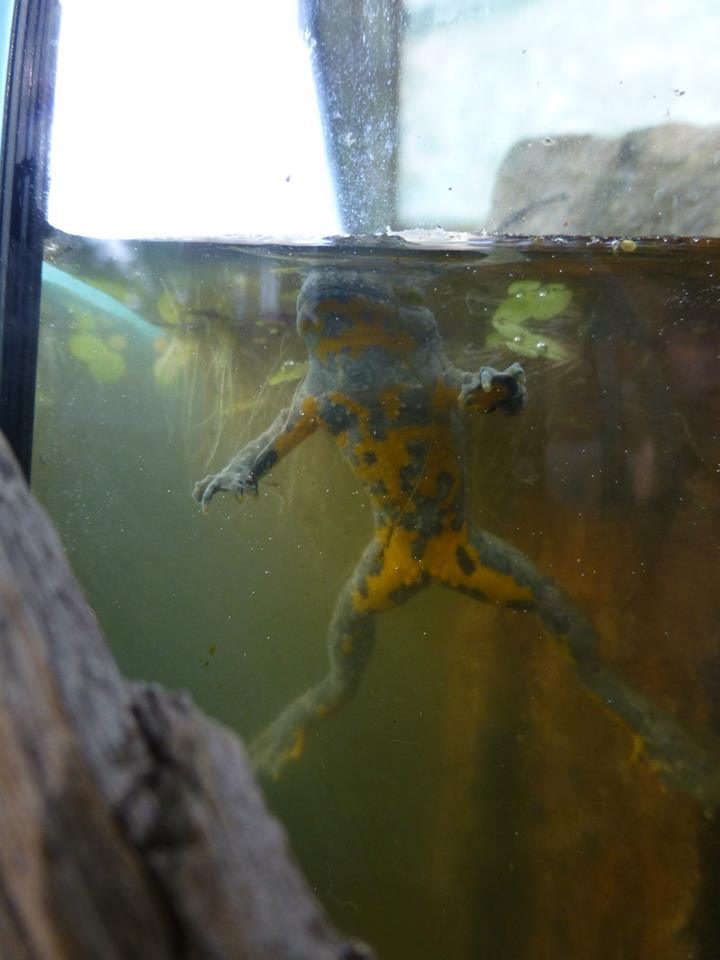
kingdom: Animalia
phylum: Chordata
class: Amphibia
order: Anura
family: Bombinatoridae
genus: Bombina
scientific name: Bombina variegata
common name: Yellow-bellied toad
